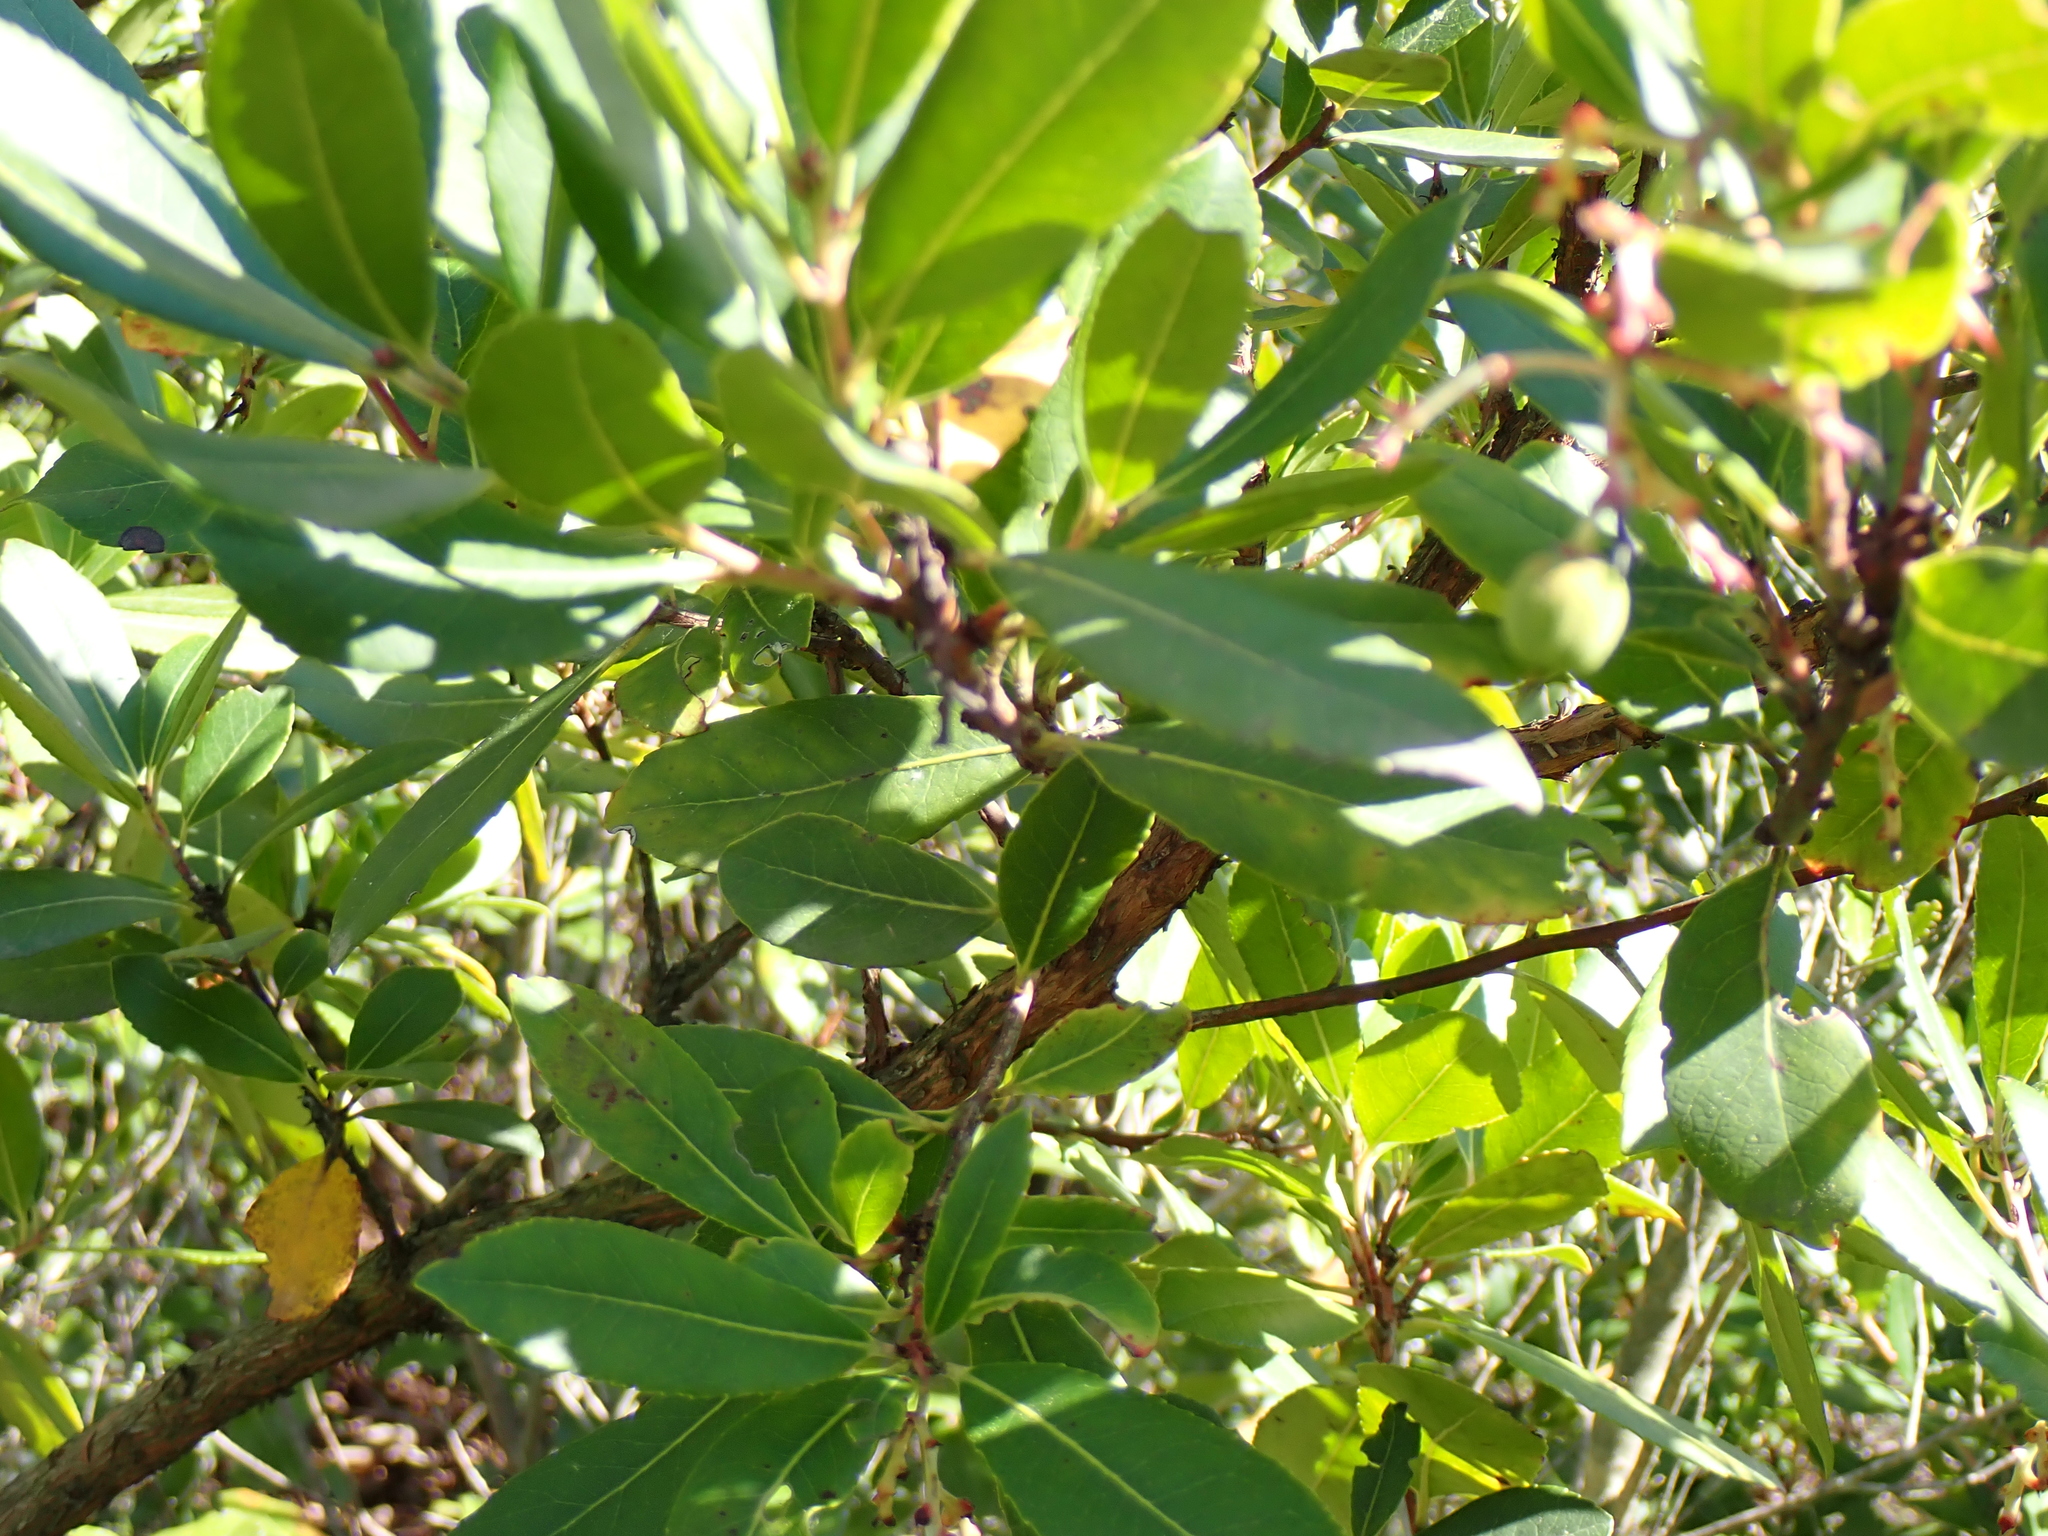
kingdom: Plantae
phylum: Tracheophyta
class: Magnoliopsida
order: Ericales
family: Ericaceae
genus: Arbutus
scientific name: Arbutus unedo
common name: Strawberry-tree
